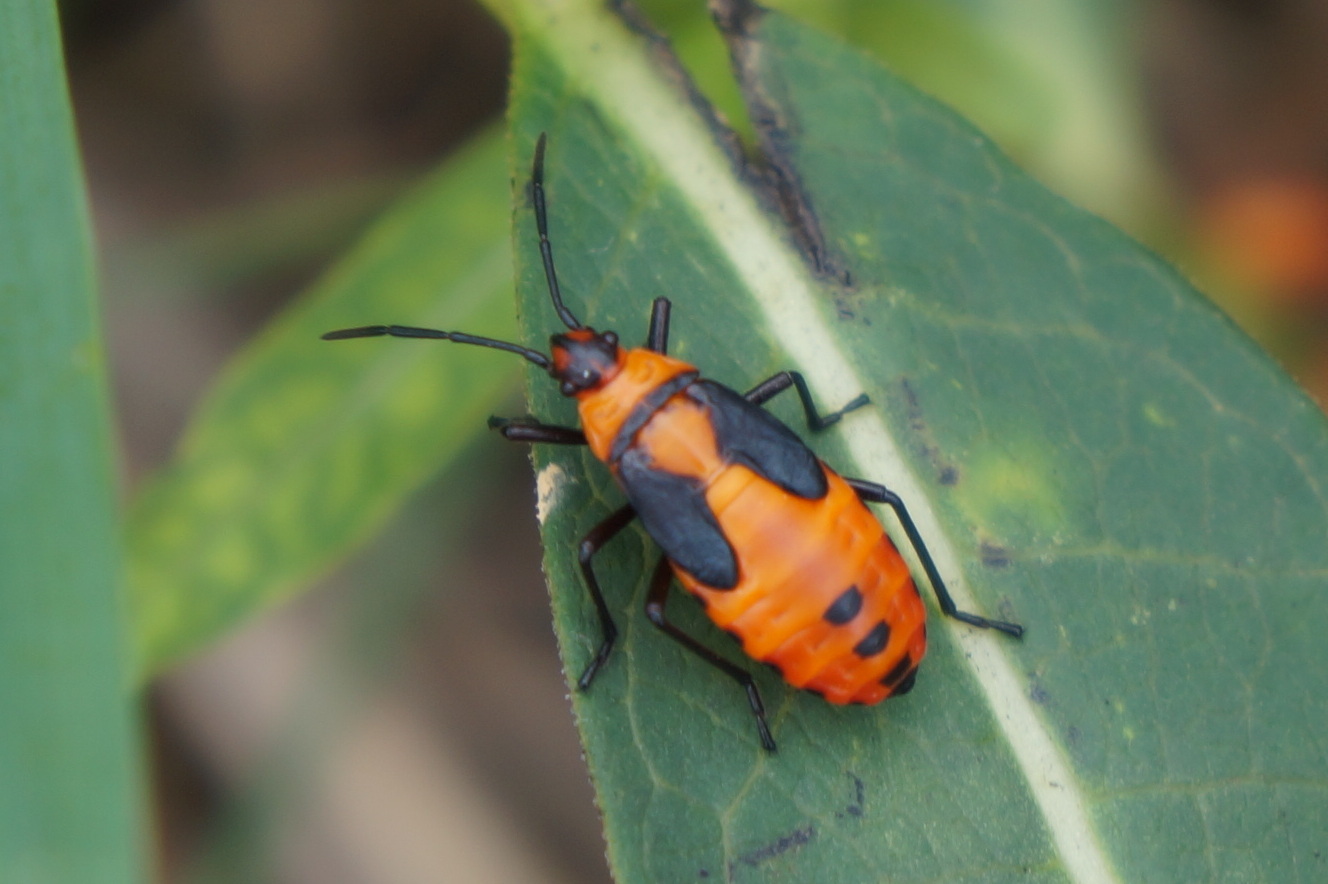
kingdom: Animalia
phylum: Arthropoda
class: Insecta
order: Hemiptera
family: Lygaeidae
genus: Oncopeltus
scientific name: Oncopeltus fasciatus
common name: Large milkweed bug
